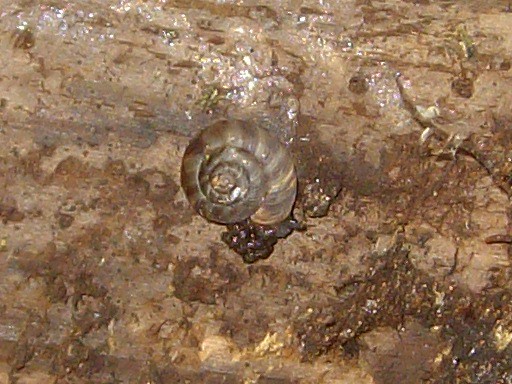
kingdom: Animalia
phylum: Mollusca
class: Gastropoda
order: Stylommatophora
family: Discidae
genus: Anguispira
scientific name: Anguispira alternata
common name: Flamed tigersnail
